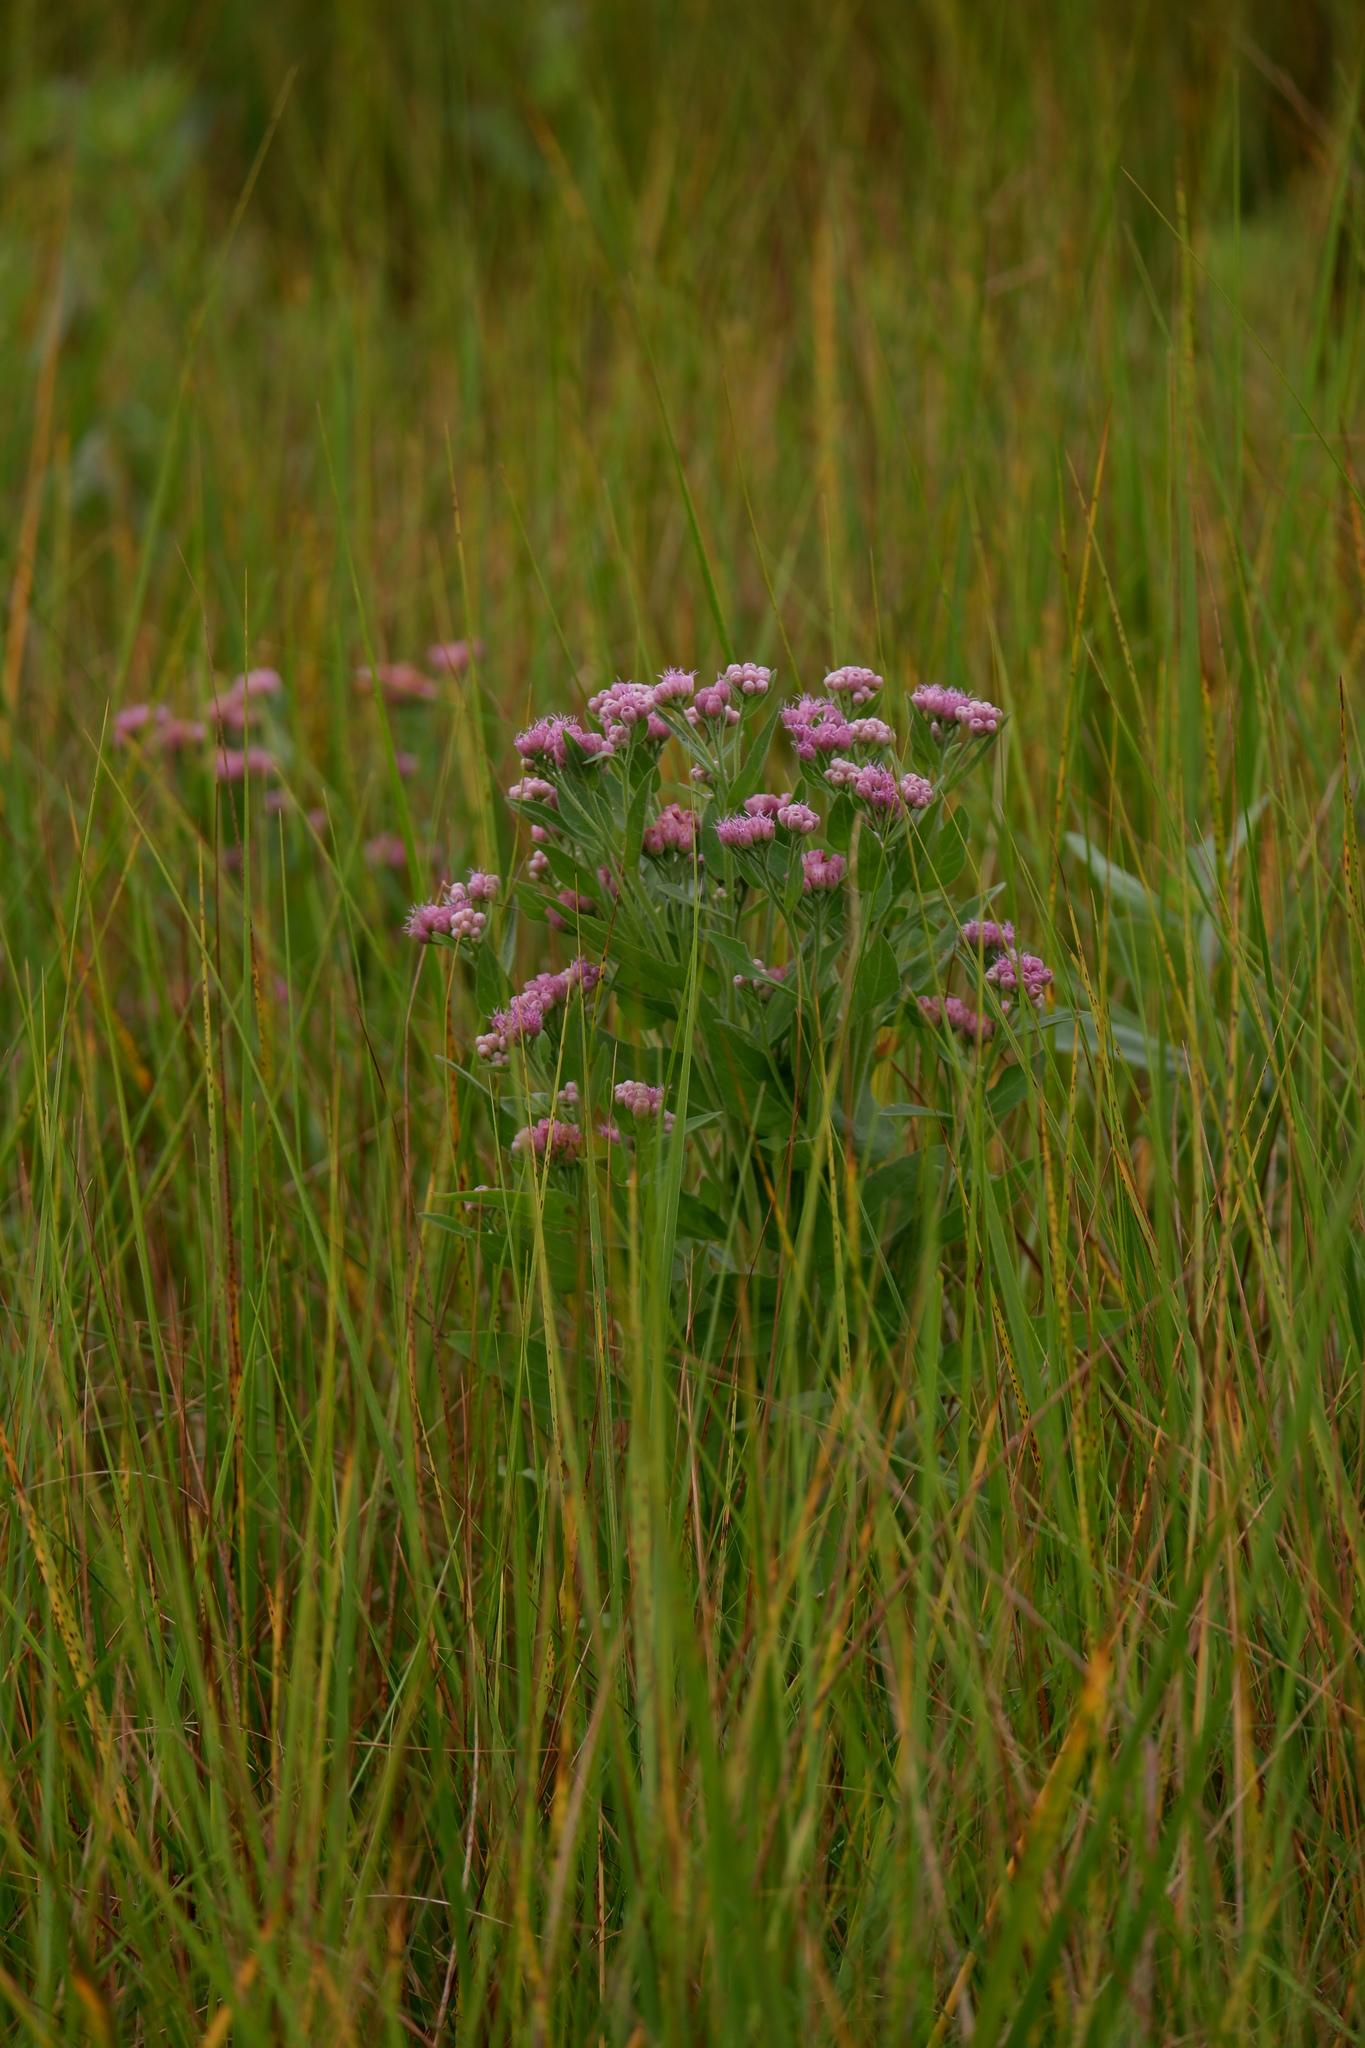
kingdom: Plantae
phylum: Tracheophyta
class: Magnoliopsida
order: Asterales
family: Asteraceae
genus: Pluchea
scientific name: Pluchea odorata
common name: Saltmarsh fleabane
